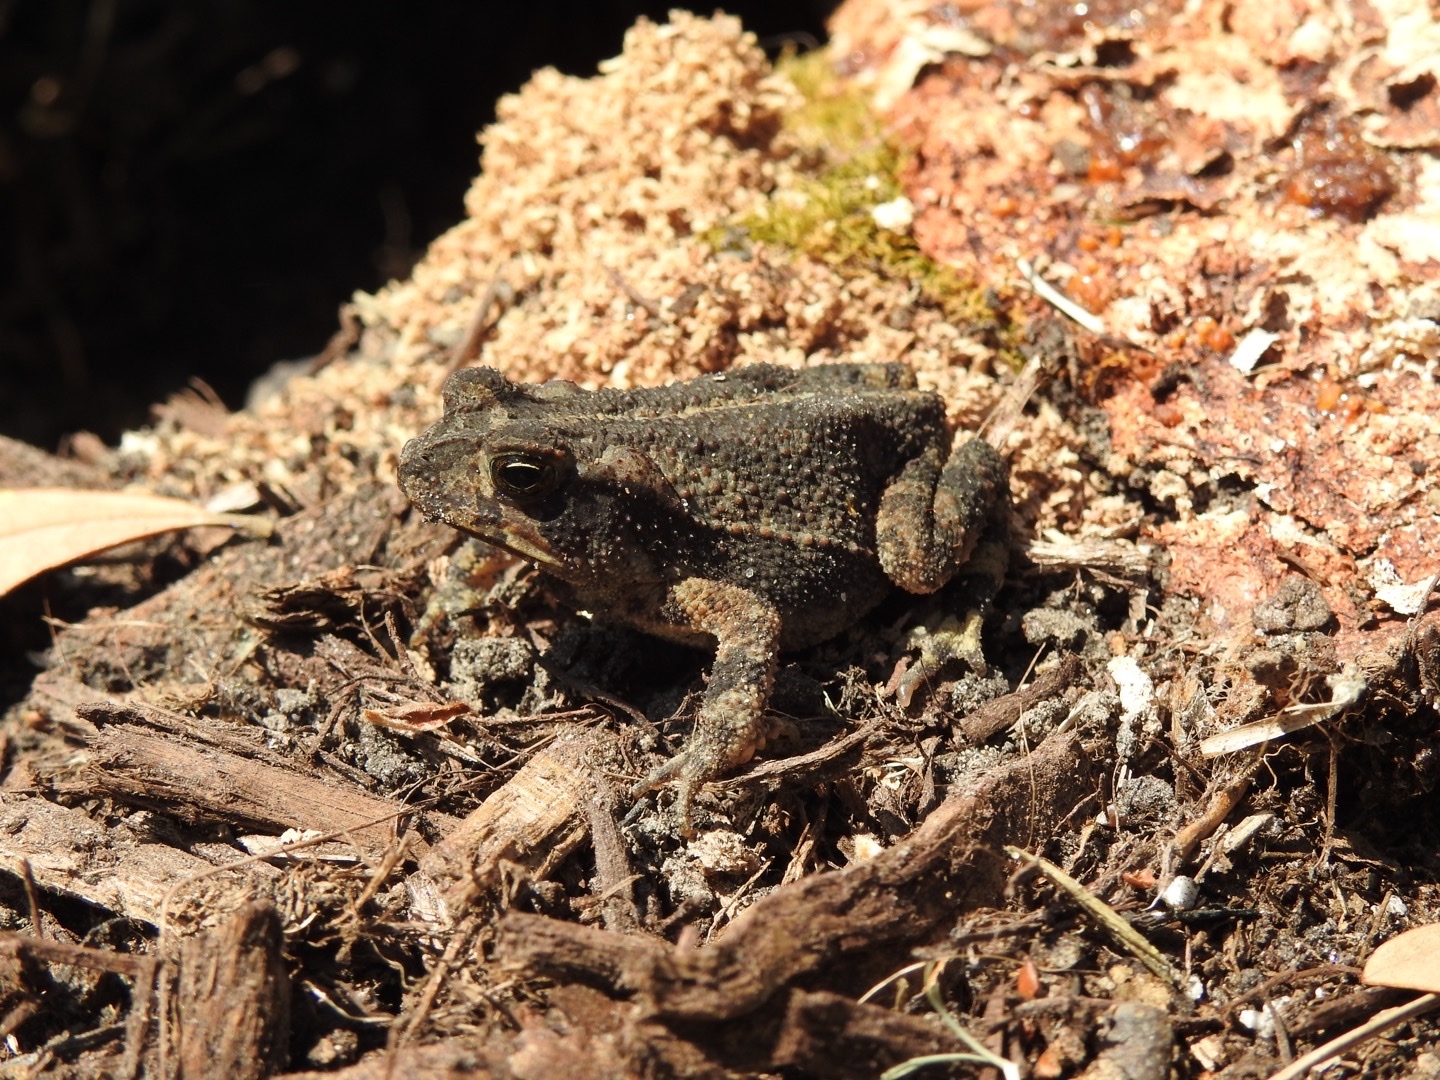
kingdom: Animalia
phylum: Chordata
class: Amphibia
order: Anura
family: Bufonidae
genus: Incilius
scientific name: Incilius nebulifer
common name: Gulf coast toad
